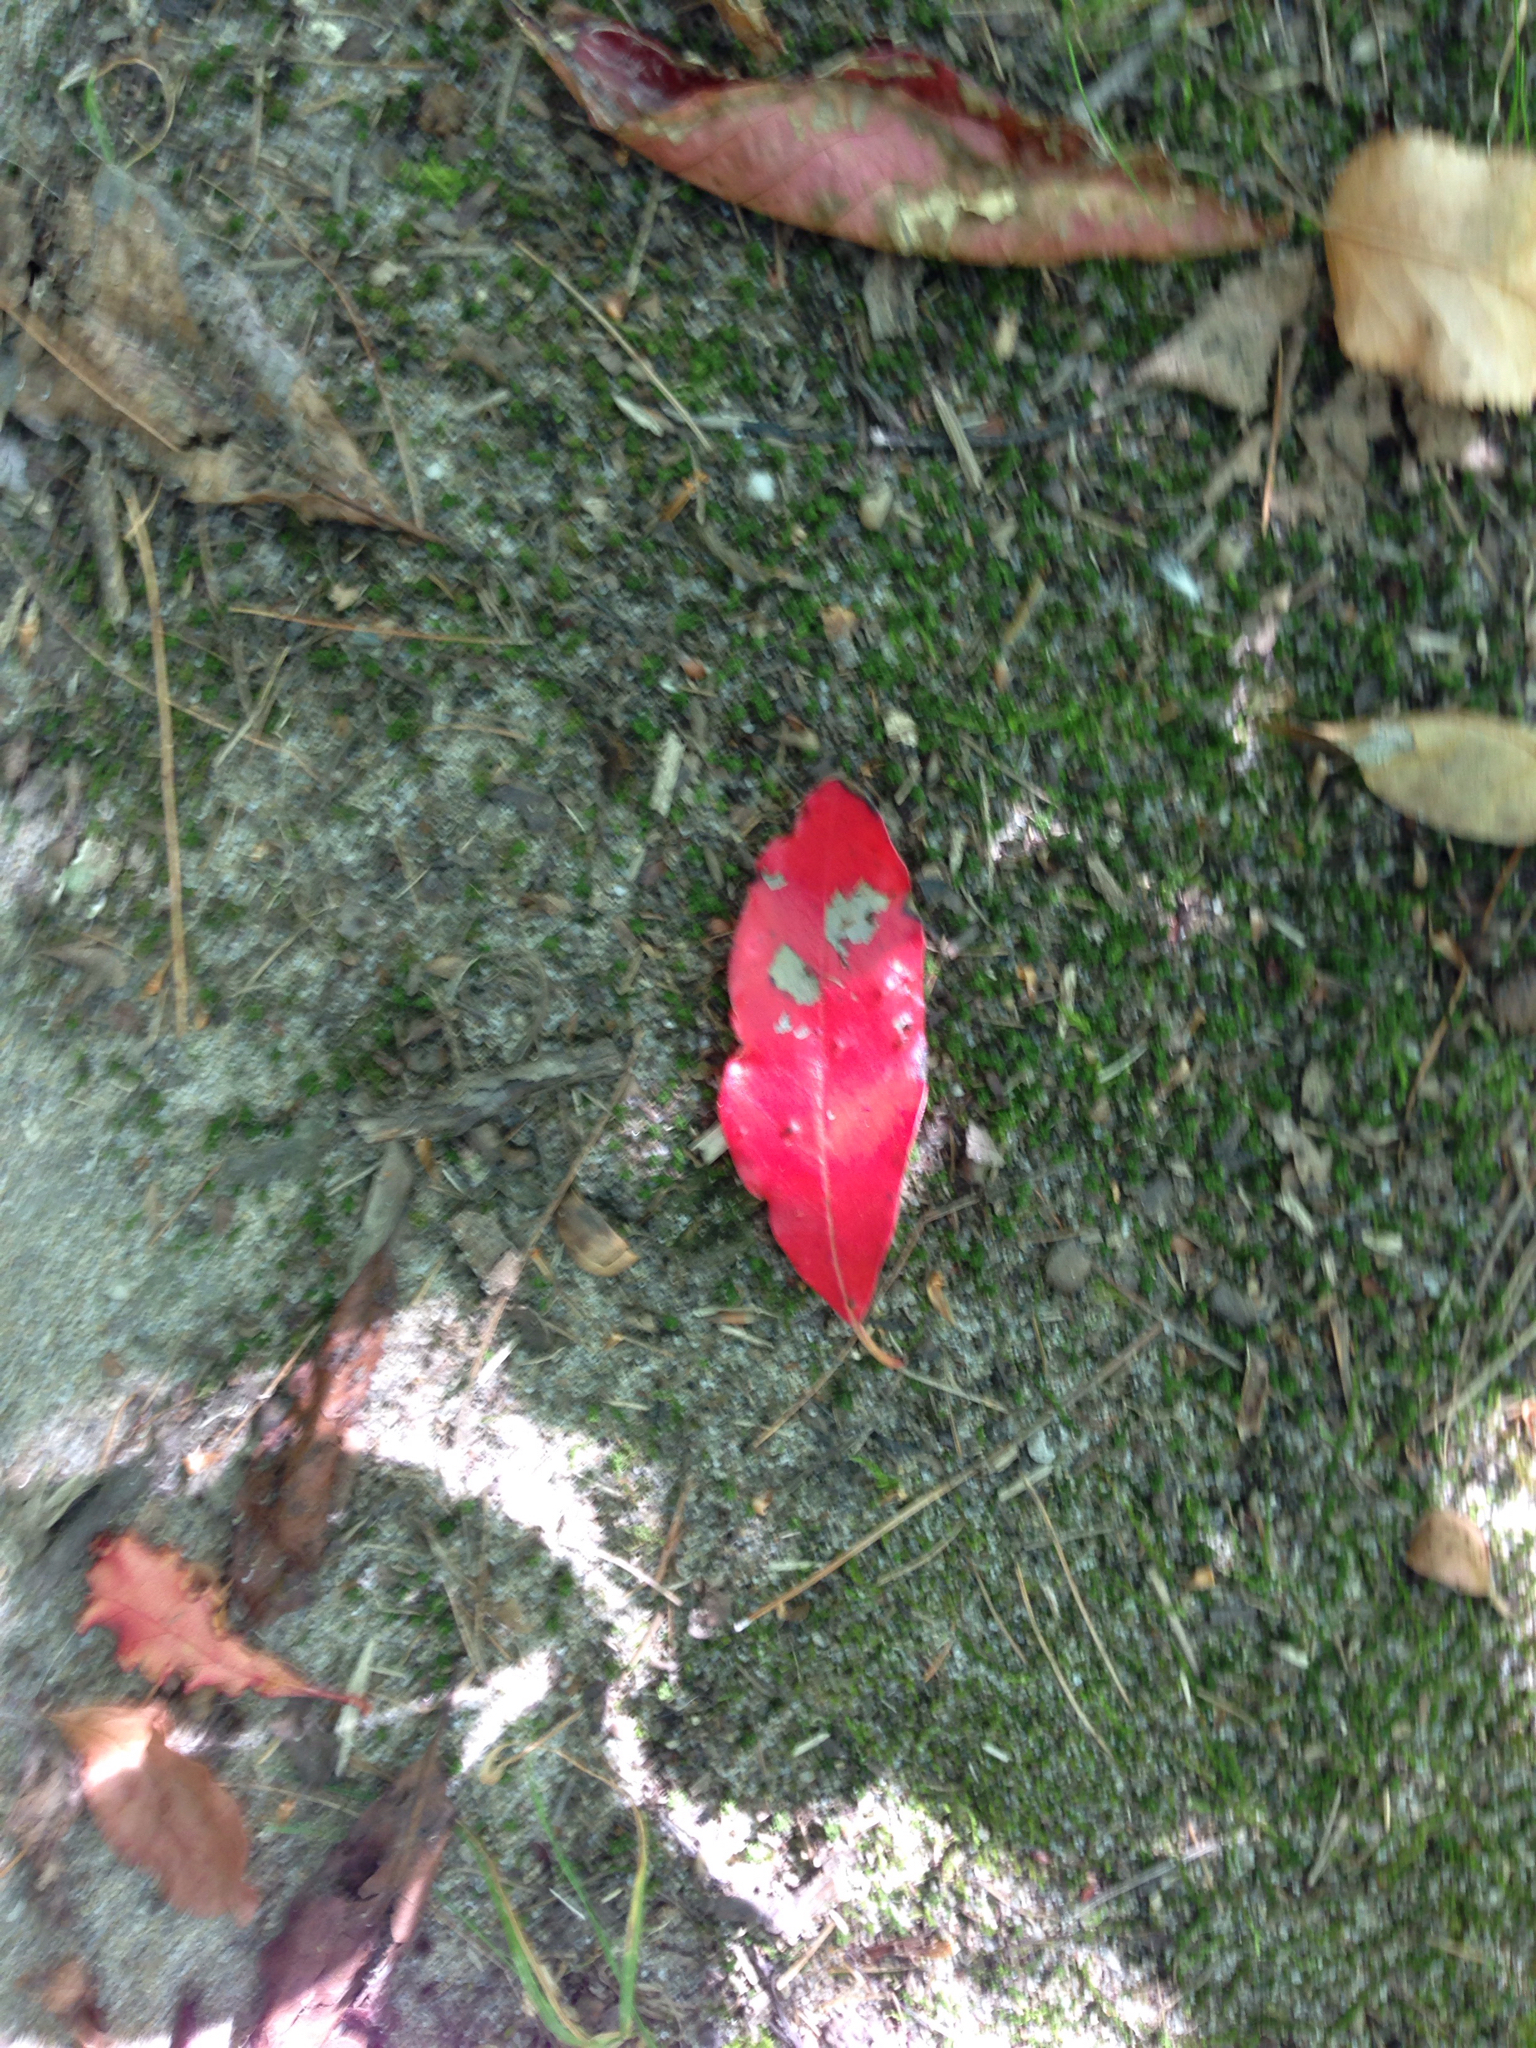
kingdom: Plantae
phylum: Tracheophyta
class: Magnoliopsida
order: Cornales
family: Nyssaceae
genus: Nyssa
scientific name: Nyssa sylvatica
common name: Black tupelo
